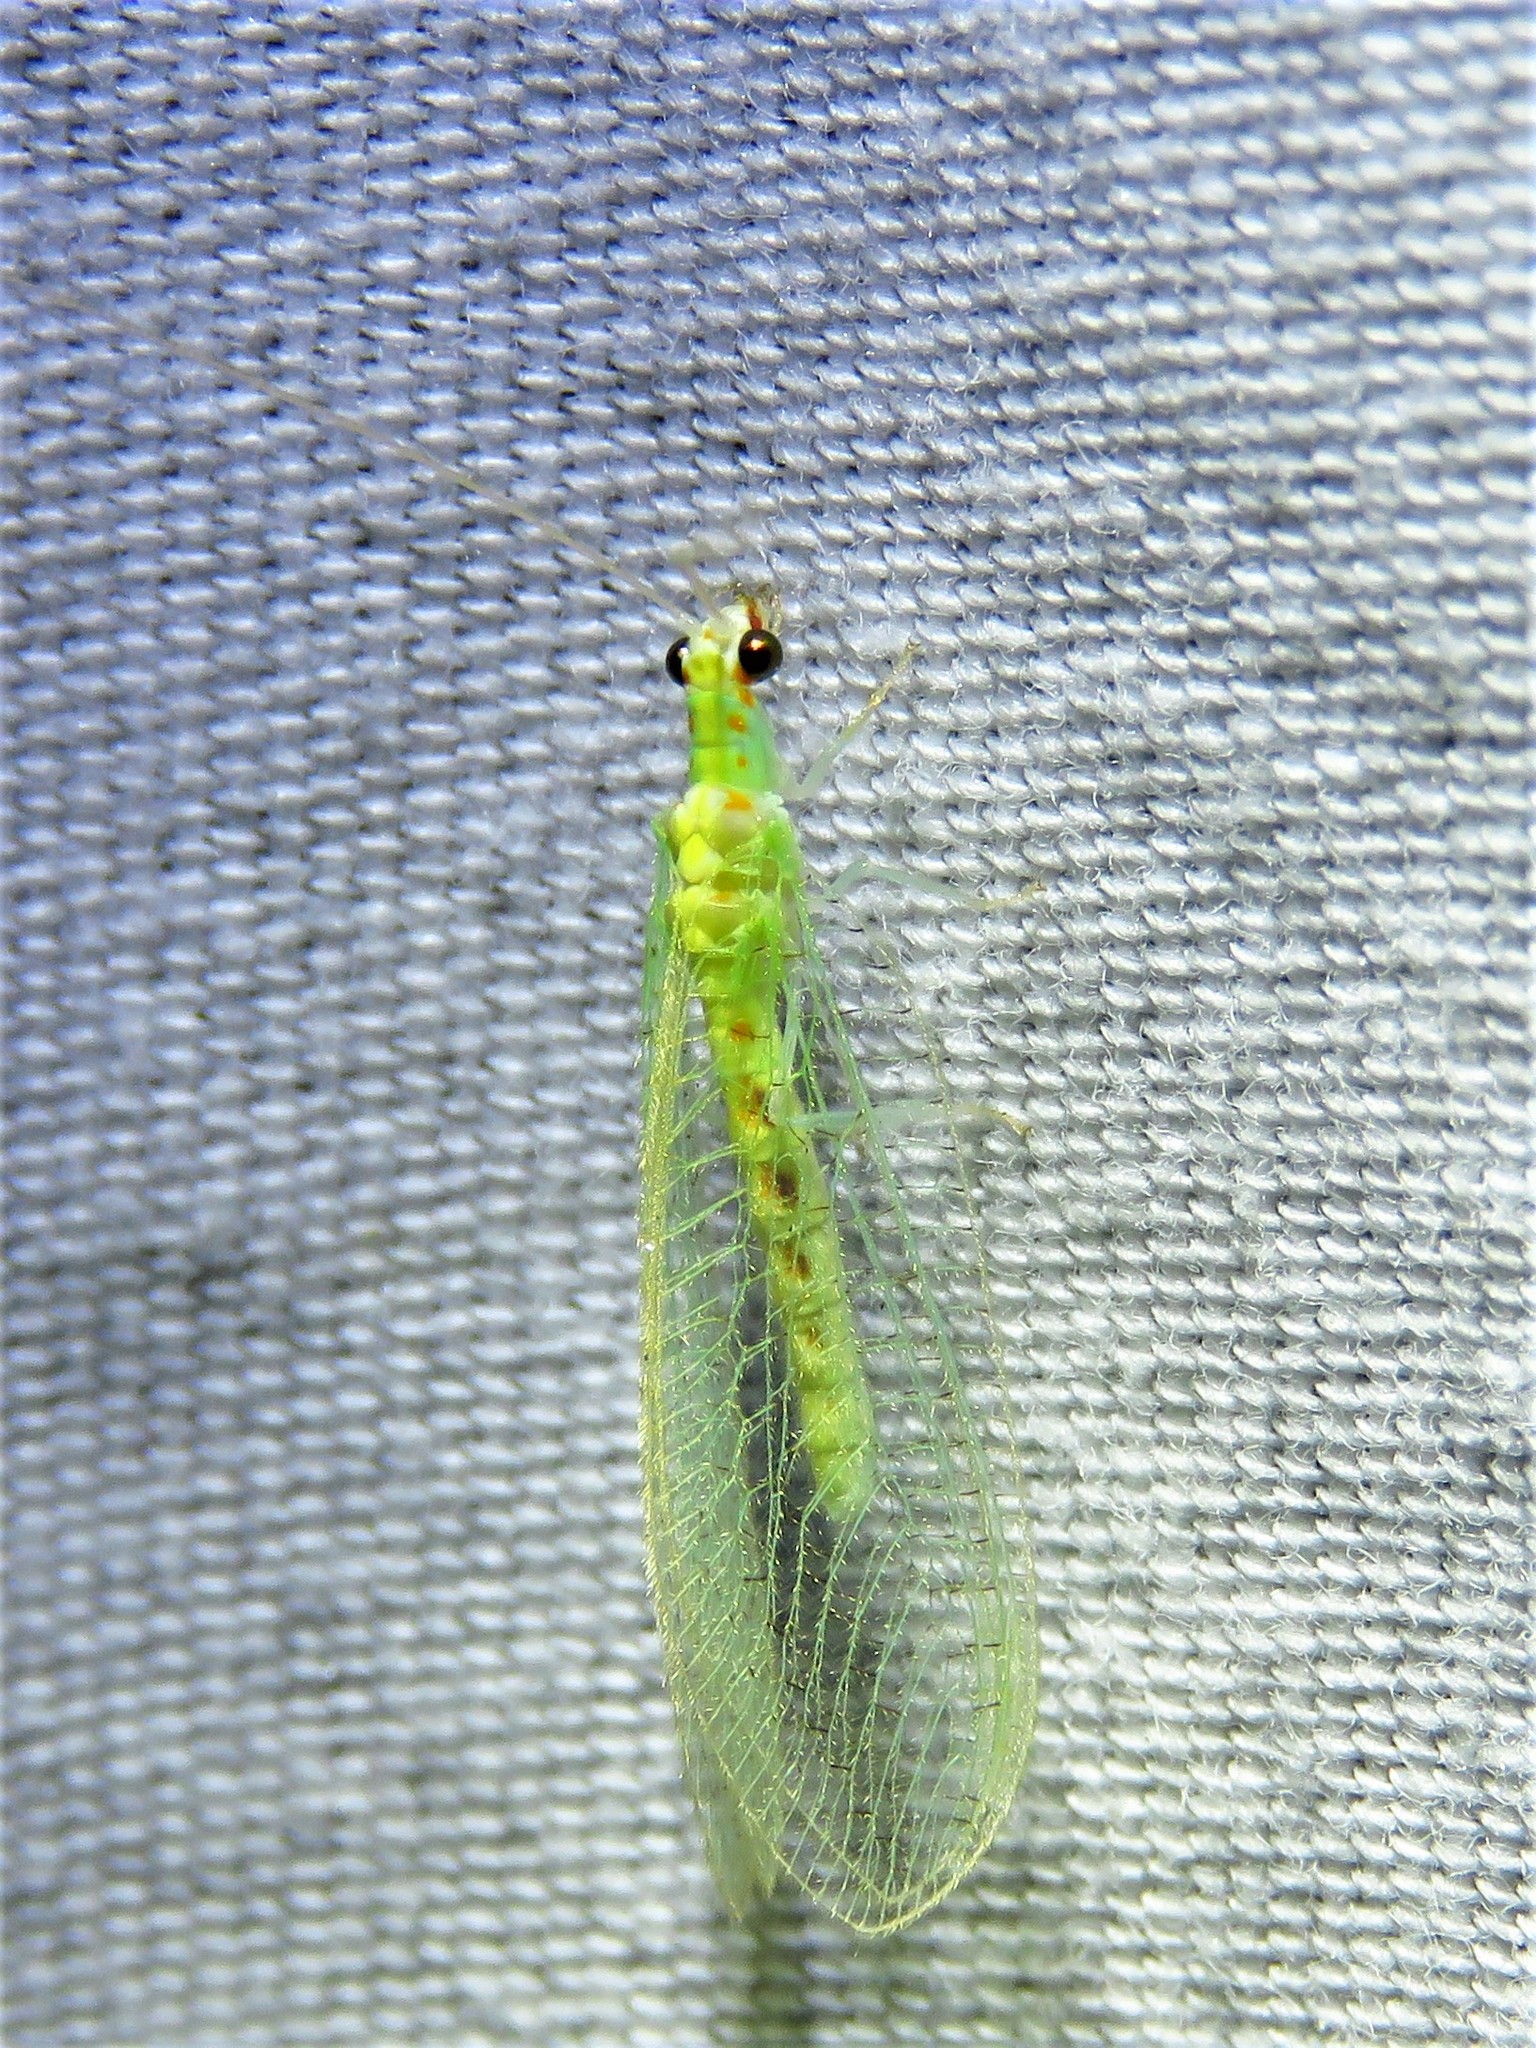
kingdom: Animalia
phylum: Arthropoda
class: Insecta
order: Neuroptera
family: Chrysopidae
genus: Chrysopa
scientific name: Chrysopa quadripunctata
